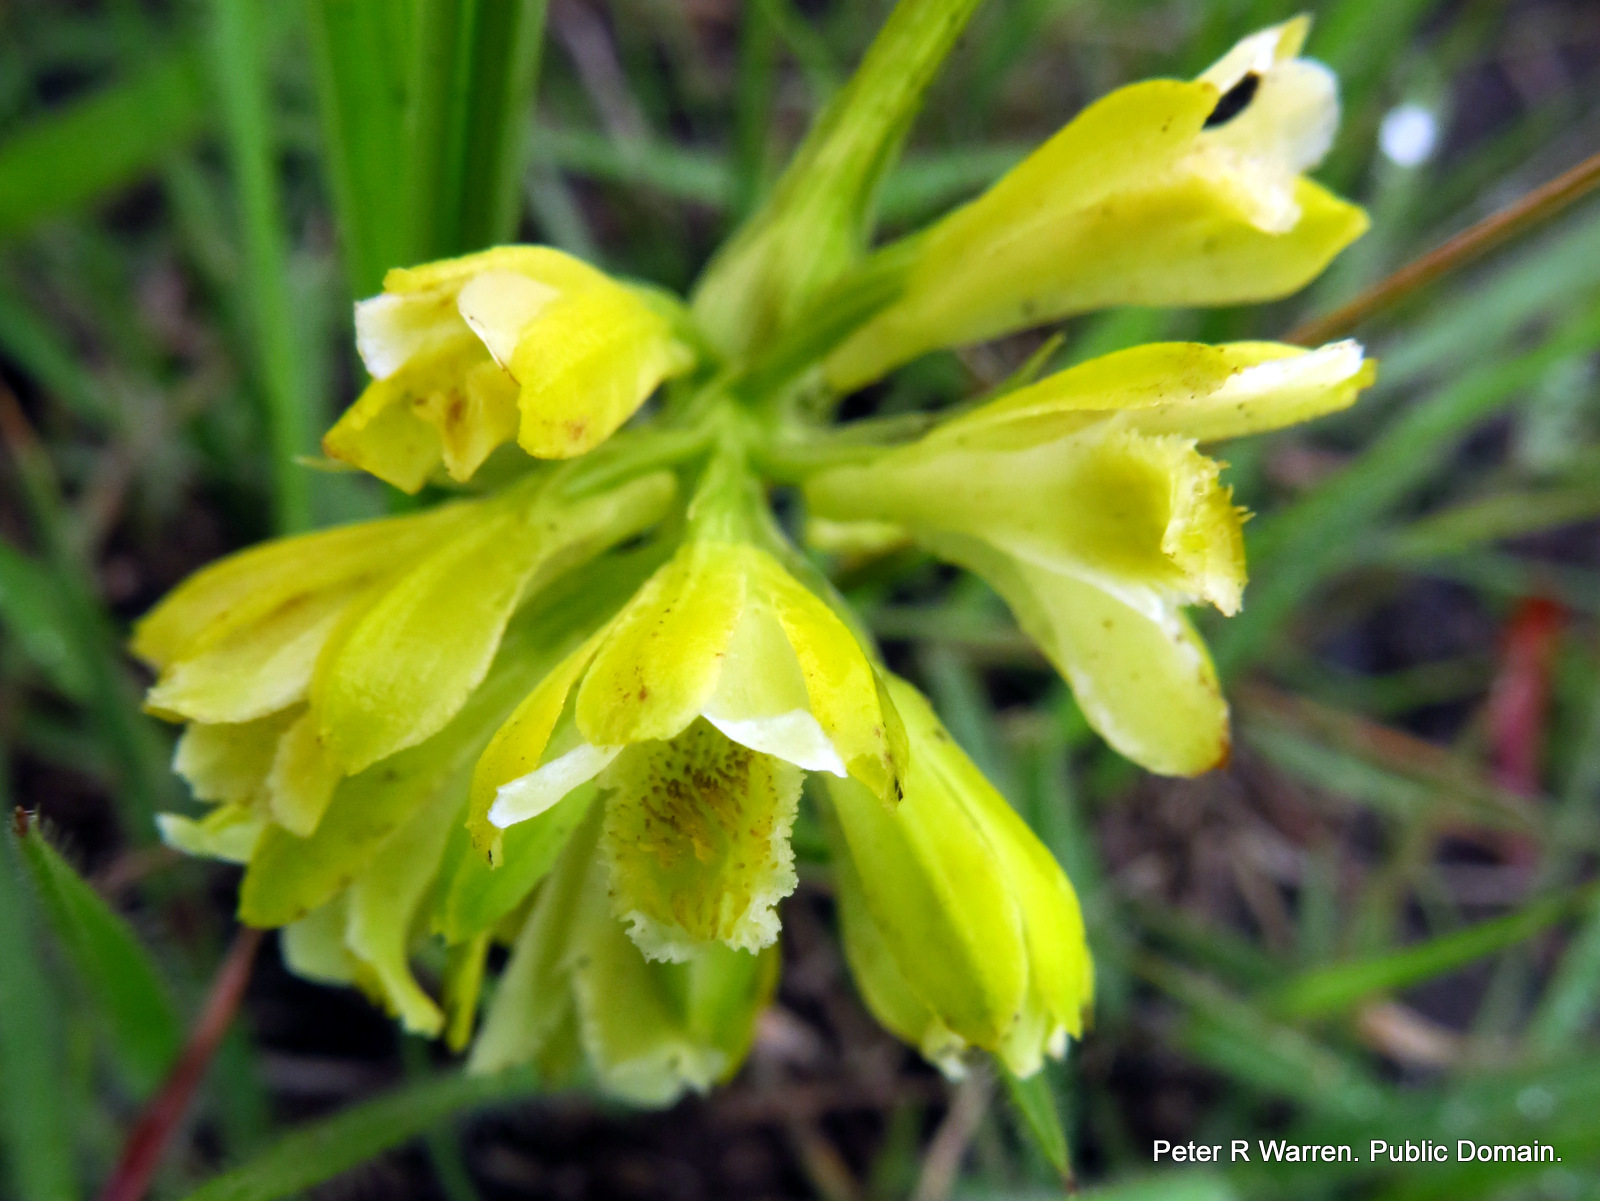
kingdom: Plantae
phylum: Tracheophyta
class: Liliopsida
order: Asparagales
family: Orchidaceae
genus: Eulophia
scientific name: Eulophia leontoglossa
